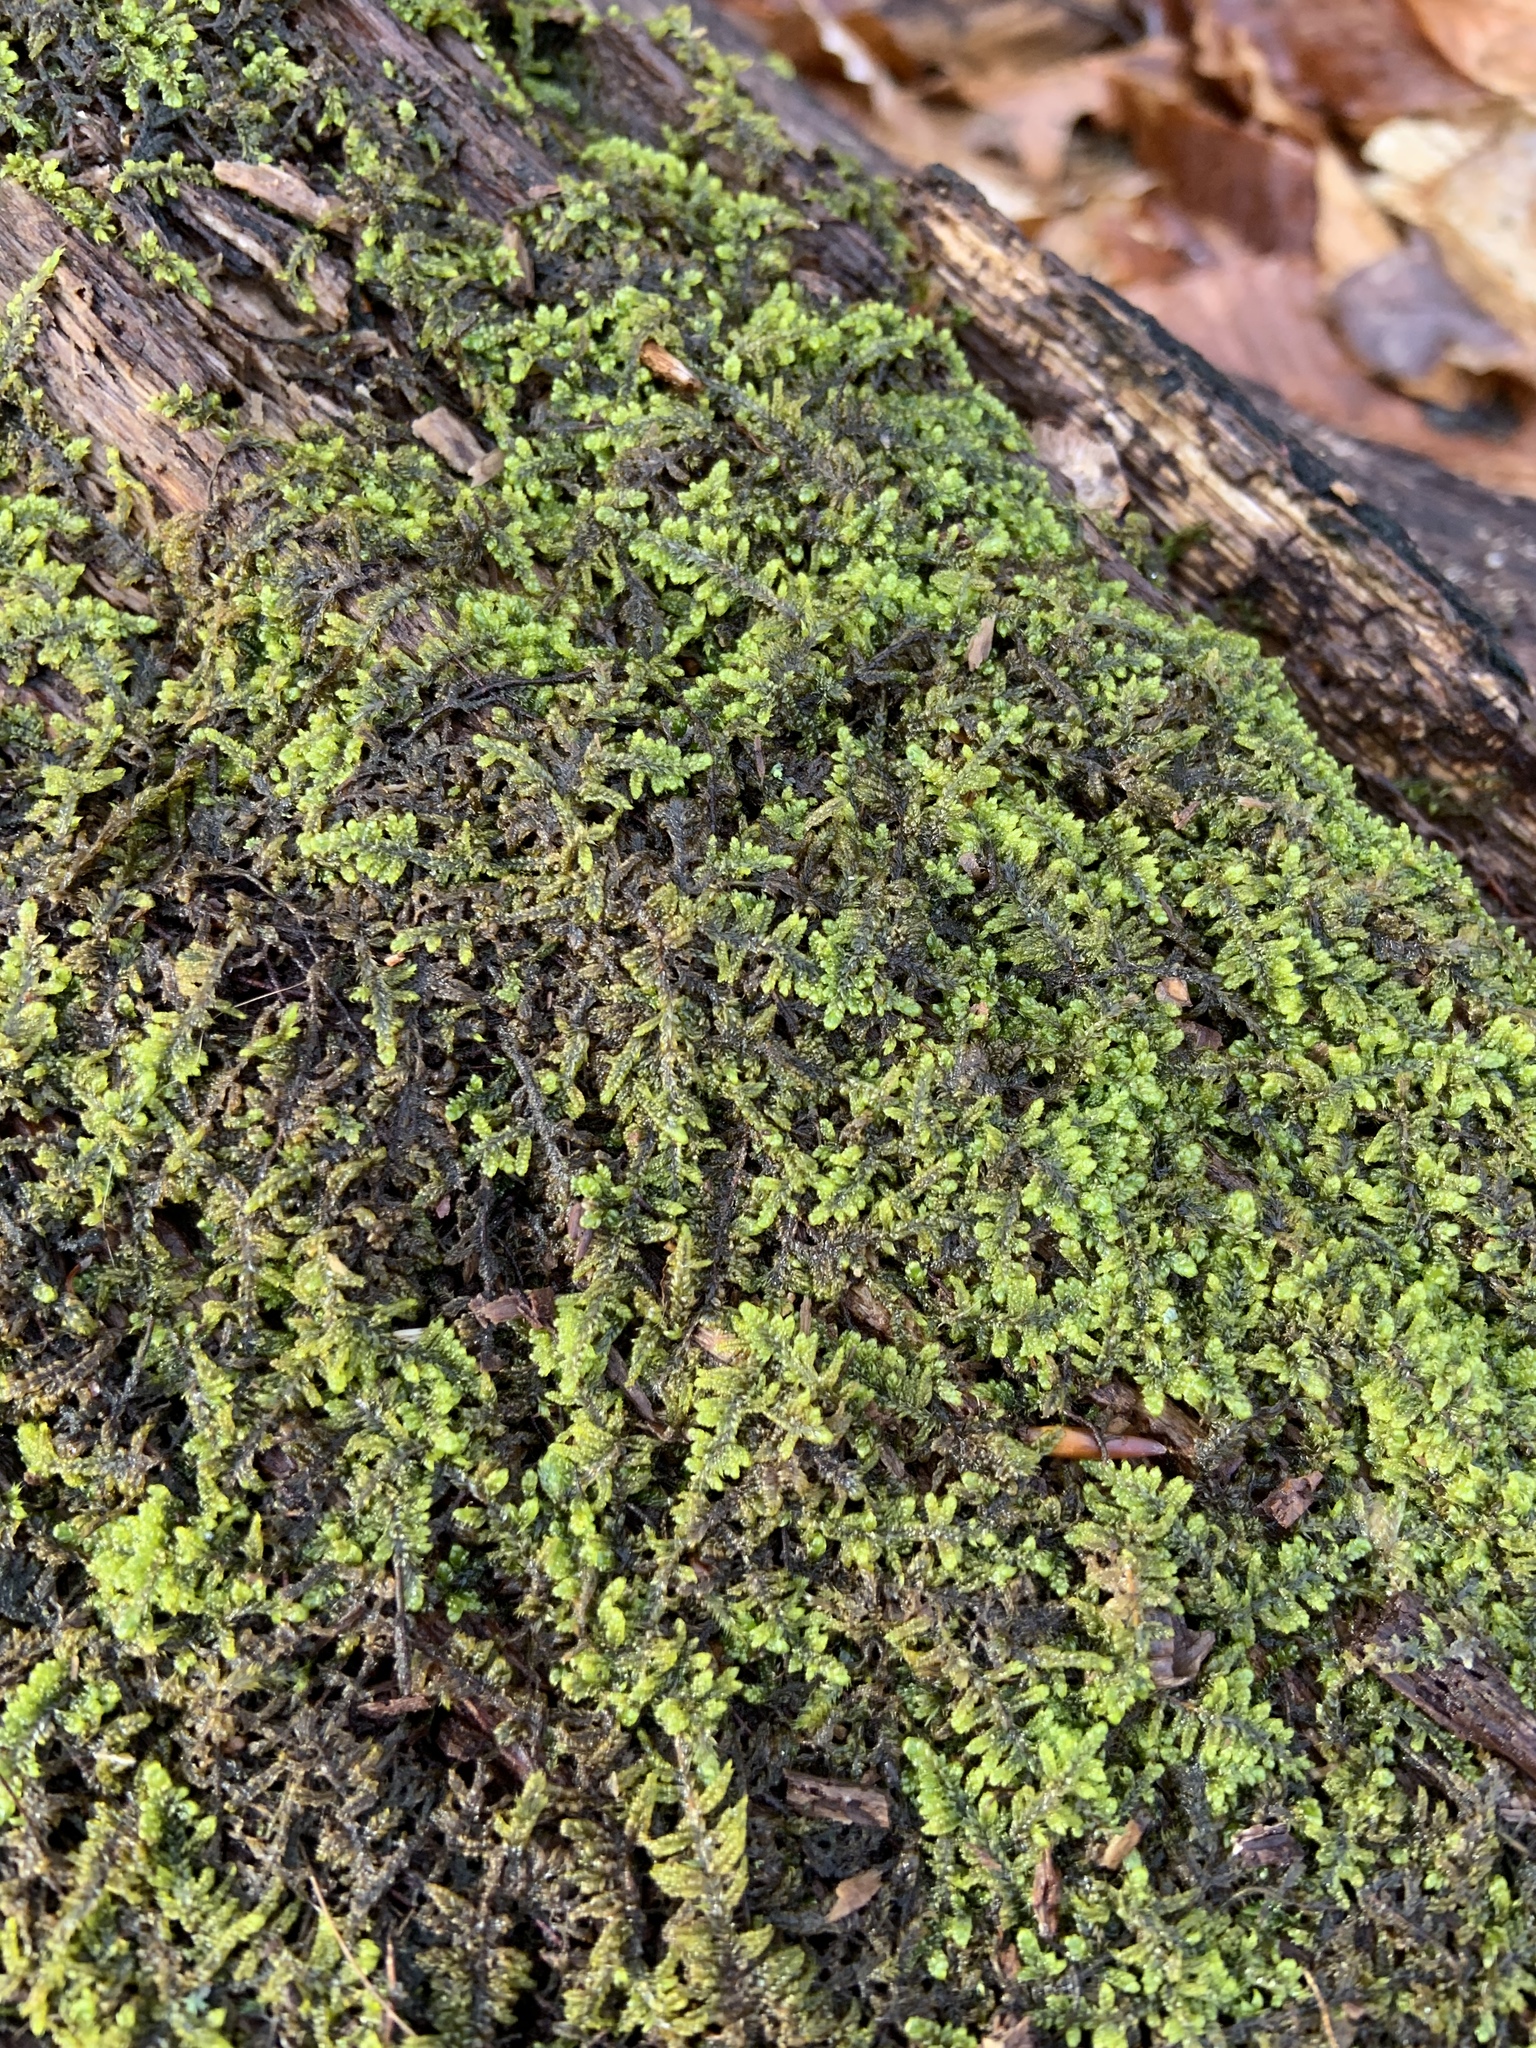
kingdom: Plantae
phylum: Bryophyta
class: Bryopsida
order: Hypnales
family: Callicladiaceae
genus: Callicladium
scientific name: Callicladium imponens
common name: Brocade moss
